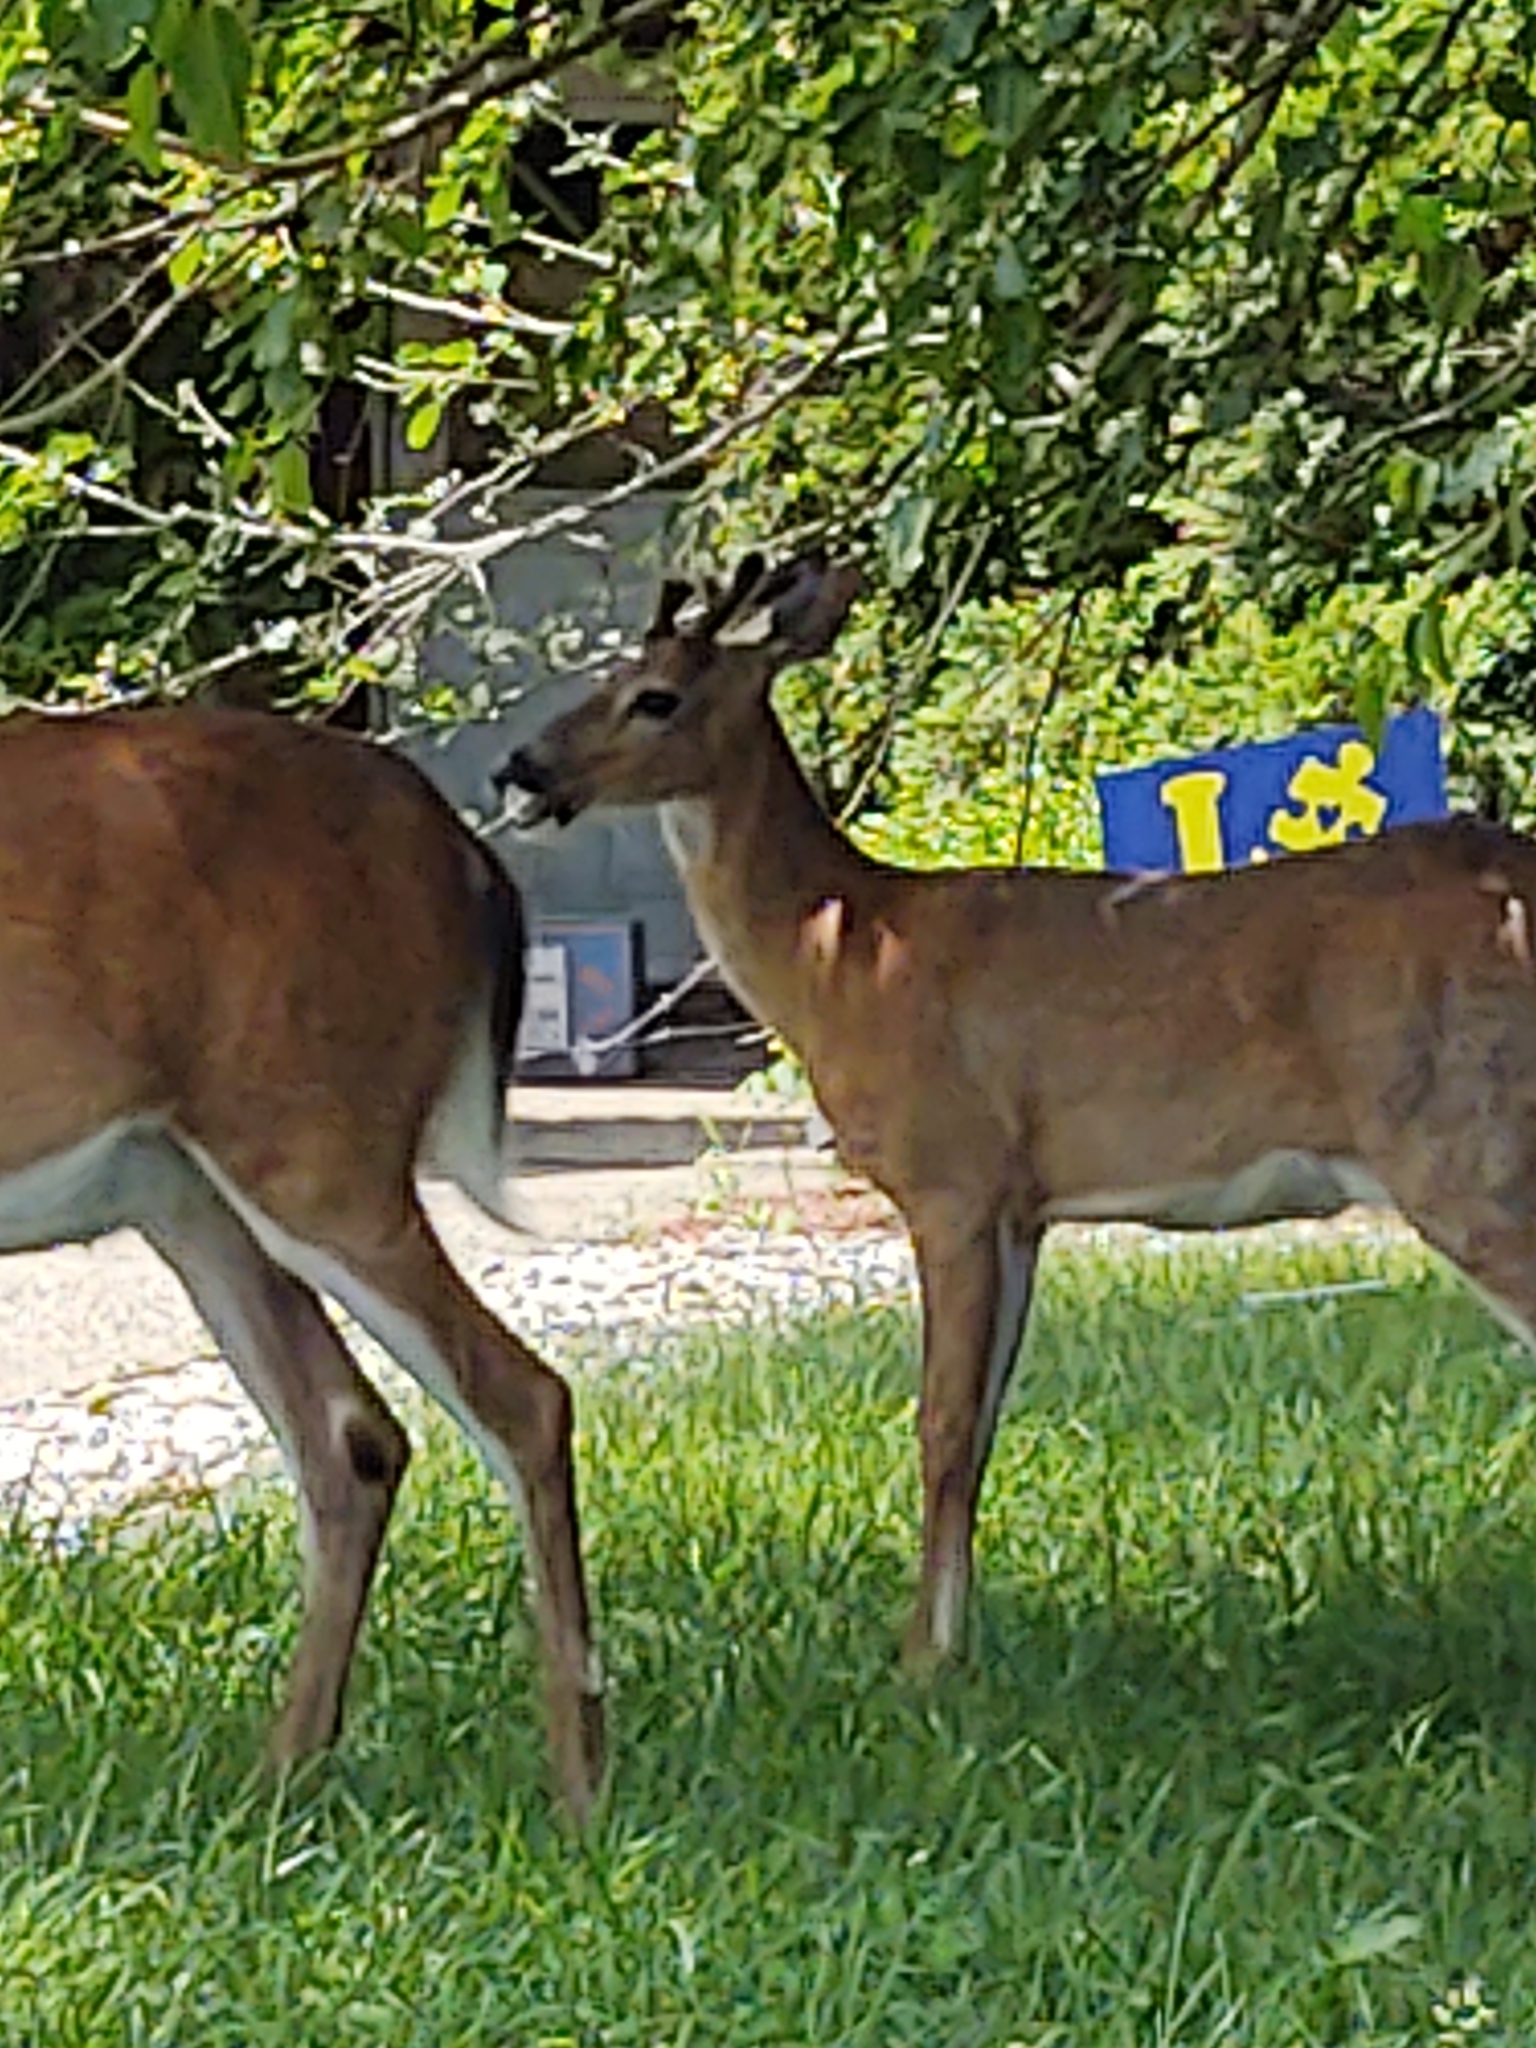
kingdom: Animalia
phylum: Chordata
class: Mammalia
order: Artiodactyla
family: Cervidae
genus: Odocoileus
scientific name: Odocoileus virginianus
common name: White-tailed deer
